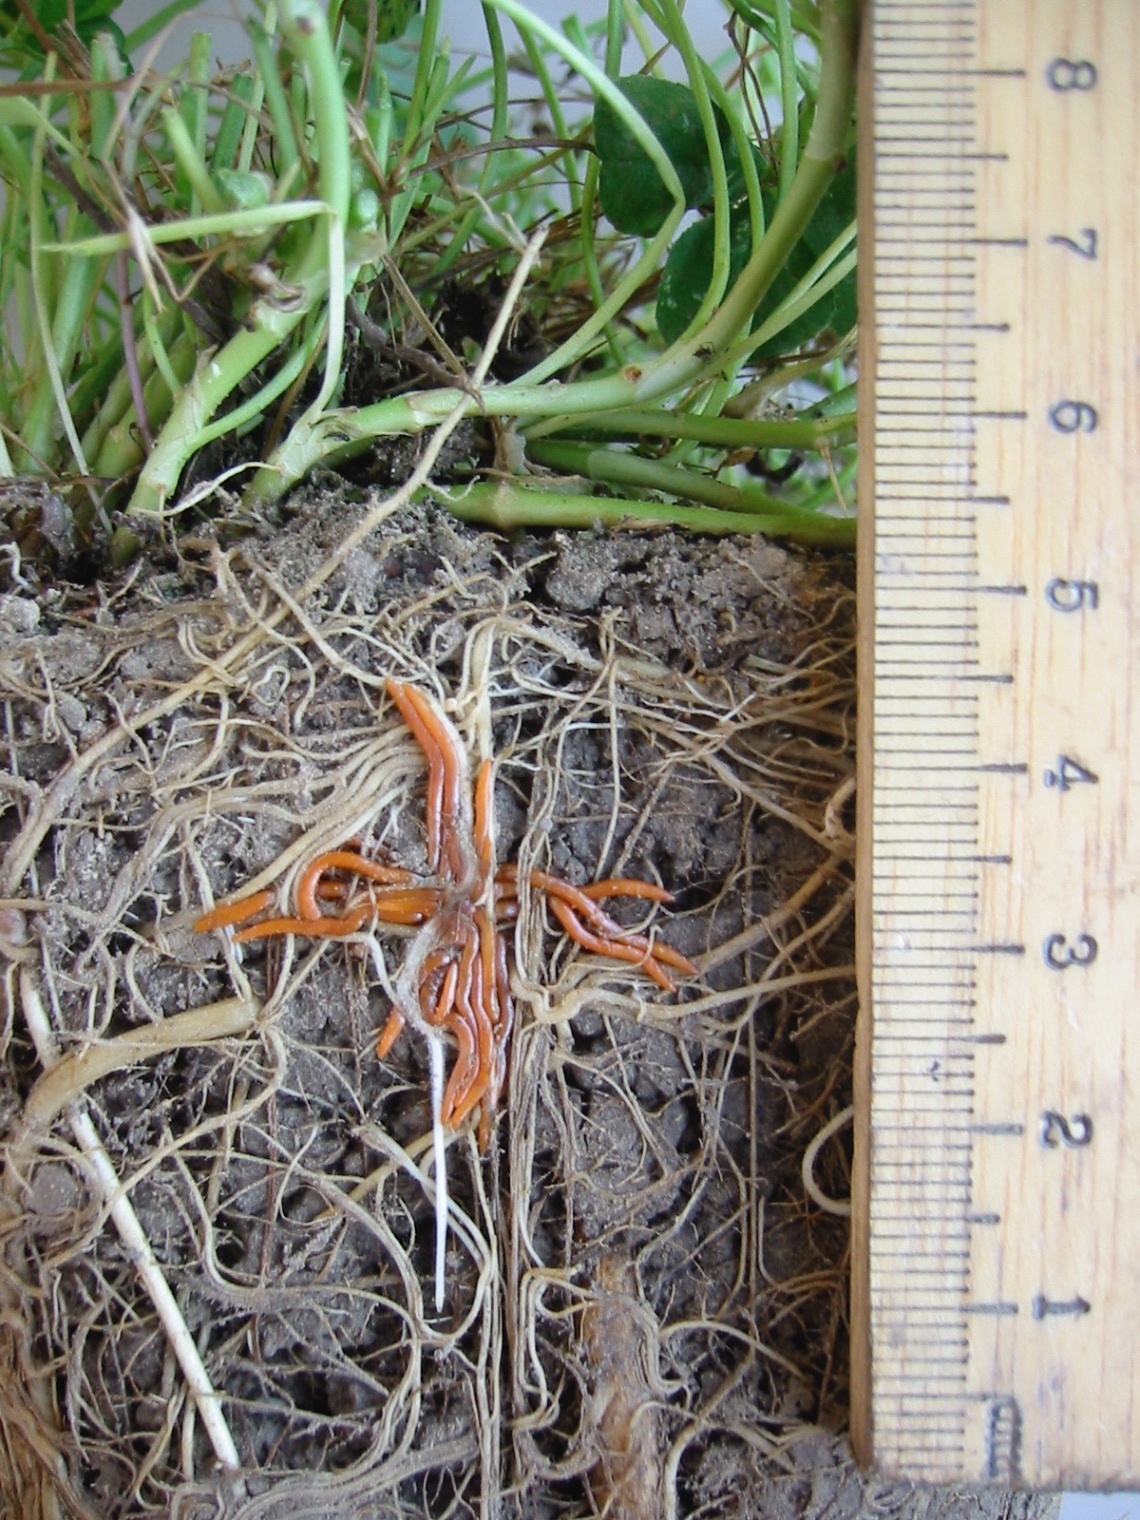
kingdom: Plantae
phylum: Tracheophyta
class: Magnoliopsida
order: Lamiales
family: Orobanchaceae
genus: Orobanche
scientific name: Orobanche minor
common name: Common broomrape
